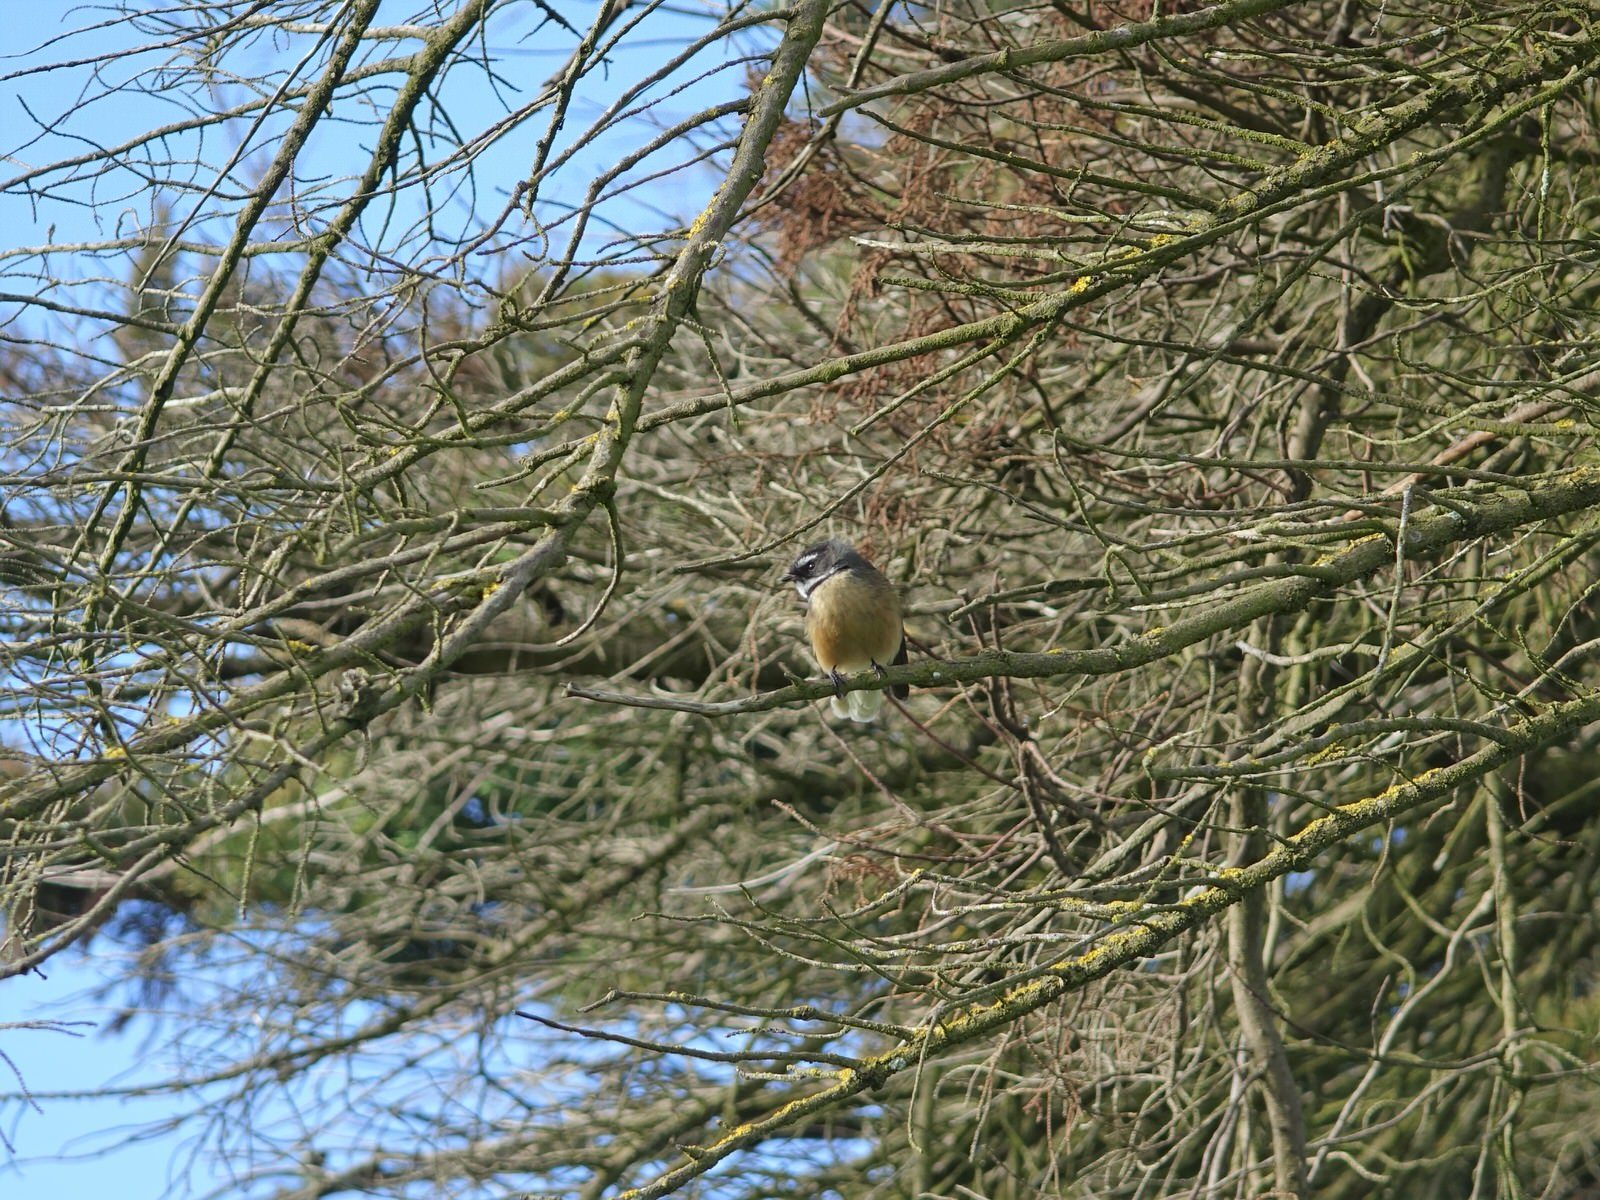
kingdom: Animalia
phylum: Chordata
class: Aves
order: Passeriformes
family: Rhipiduridae
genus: Rhipidura
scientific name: Rhipidura fuliginosa
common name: New zealand fantail
